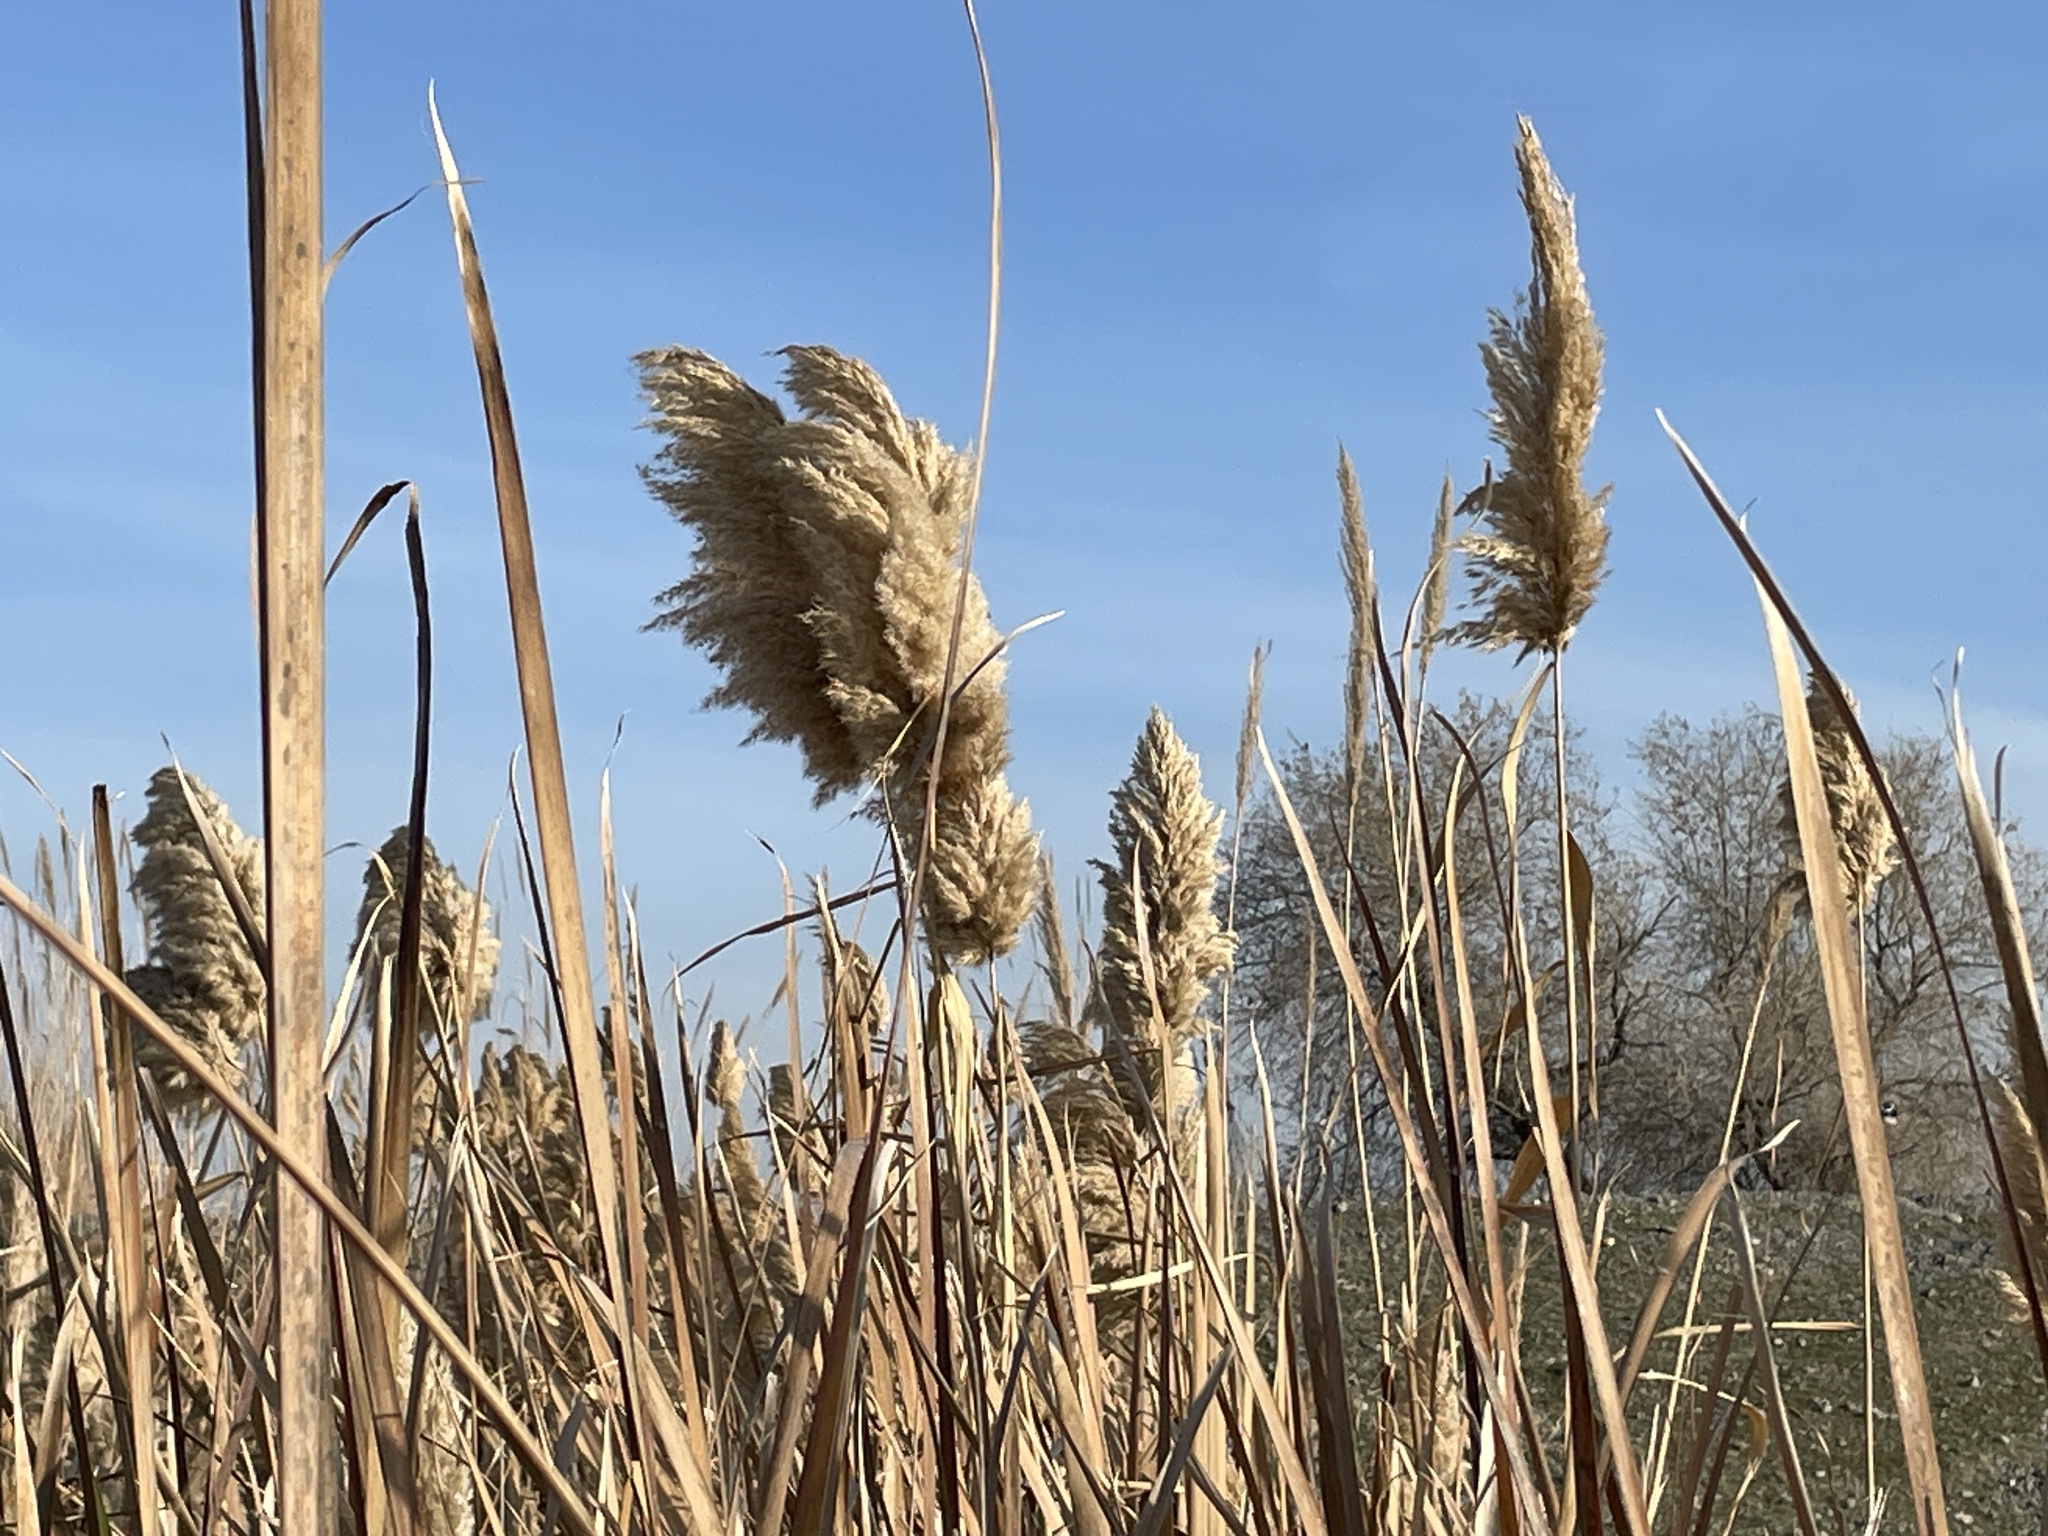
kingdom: Plantae
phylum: Tracheophyta
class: Liliopsida
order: Poales
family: Poaceae
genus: Phragmites
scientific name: Phragmites australis
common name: Common reed
